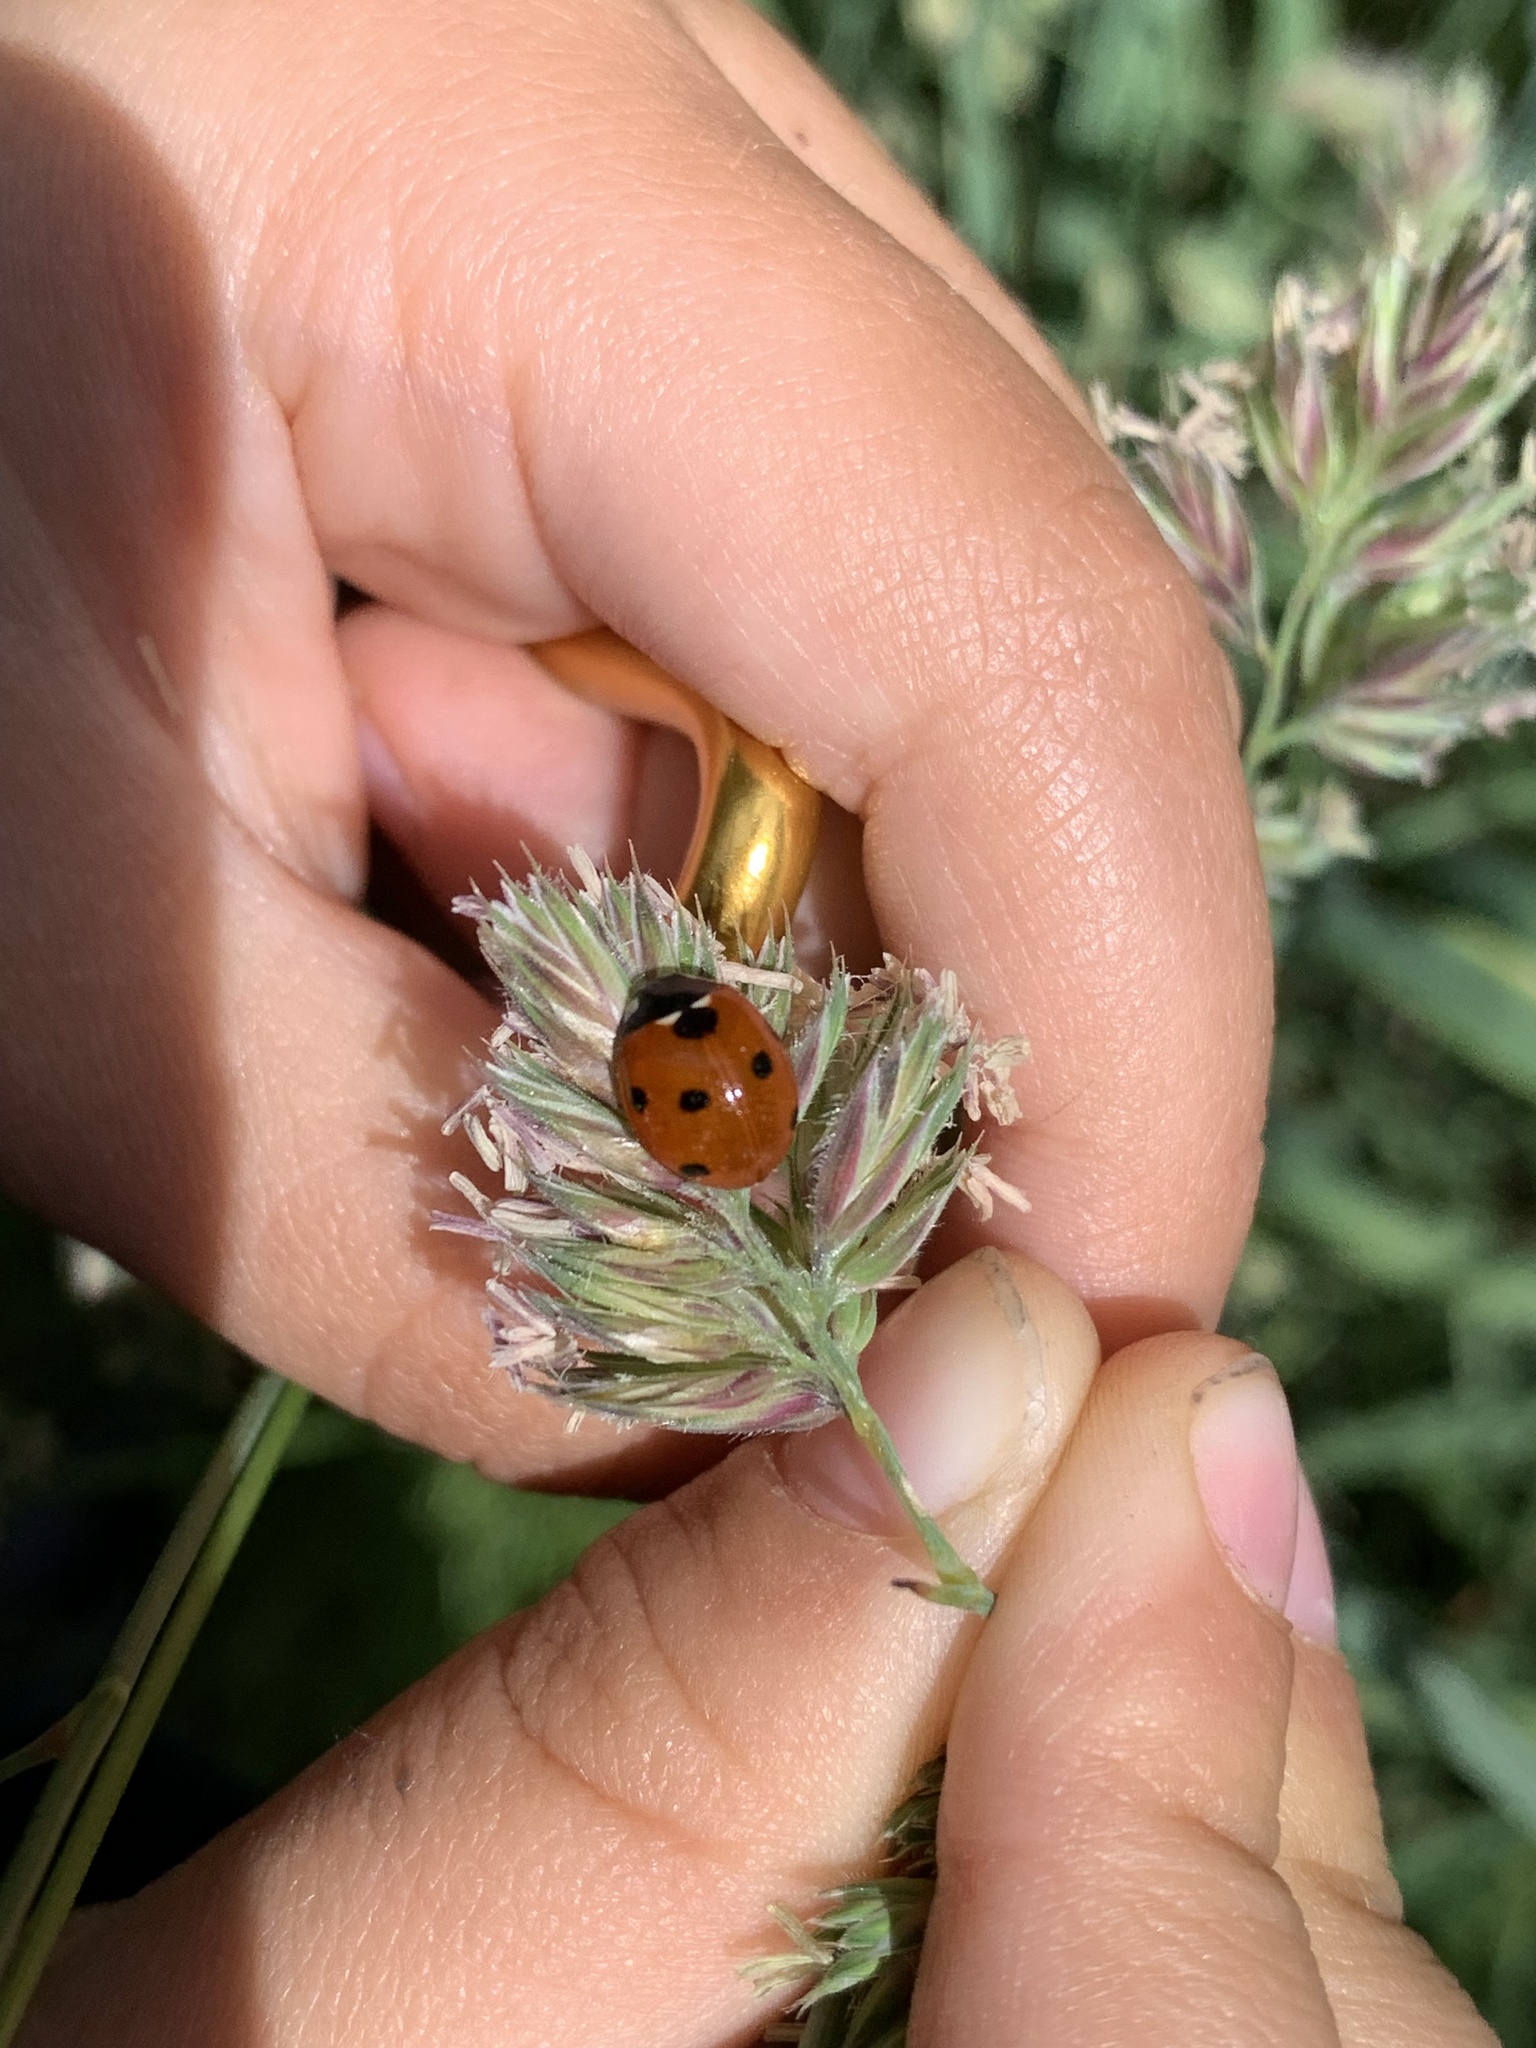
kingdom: Animalia
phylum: Arthropoda
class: Insecta
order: Coleoptera
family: Coccinellidae
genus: Coccinella
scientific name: Coccinella septempunctata
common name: Sevenspotted lady beetle
